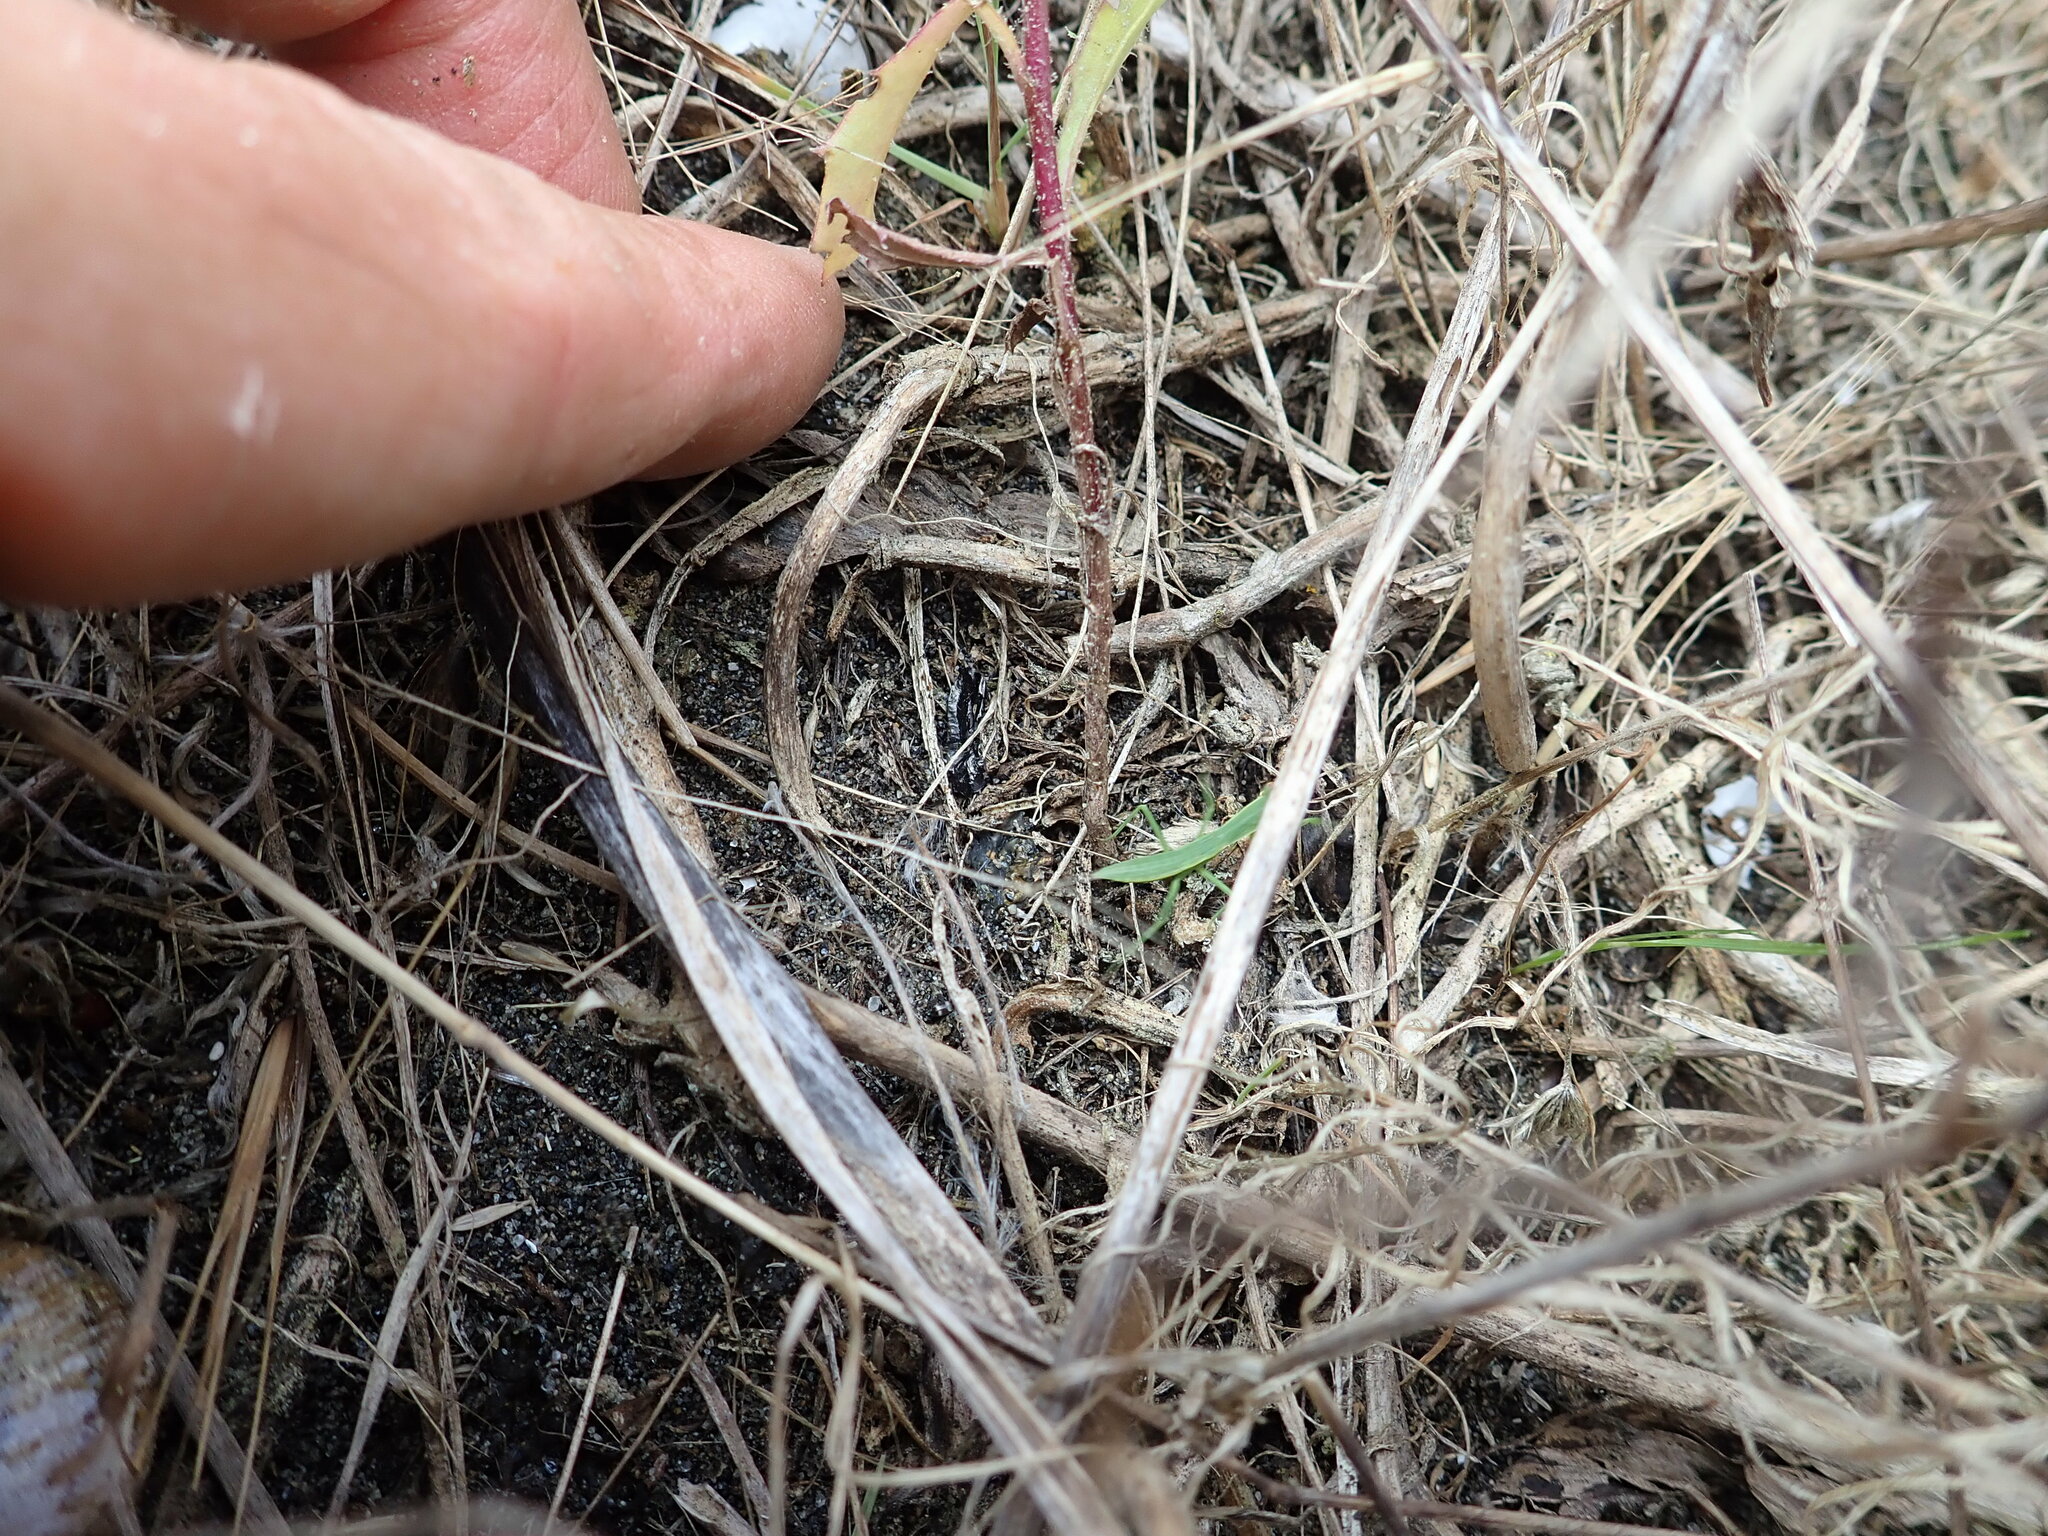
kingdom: Animalia
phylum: Arthropoda
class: Insecta
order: Mantodea
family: Mantidae
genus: Orthodera
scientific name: Orthodera novaezealandiae
